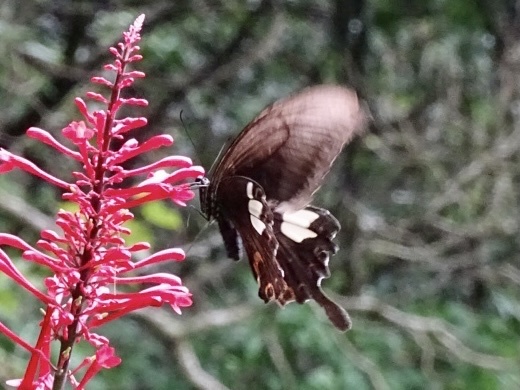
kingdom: Animalia
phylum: Arthropoda
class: Insecta
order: Lepidoptera
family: Papilionidae
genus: Papilio
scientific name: Papilio helenus
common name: Red helen
